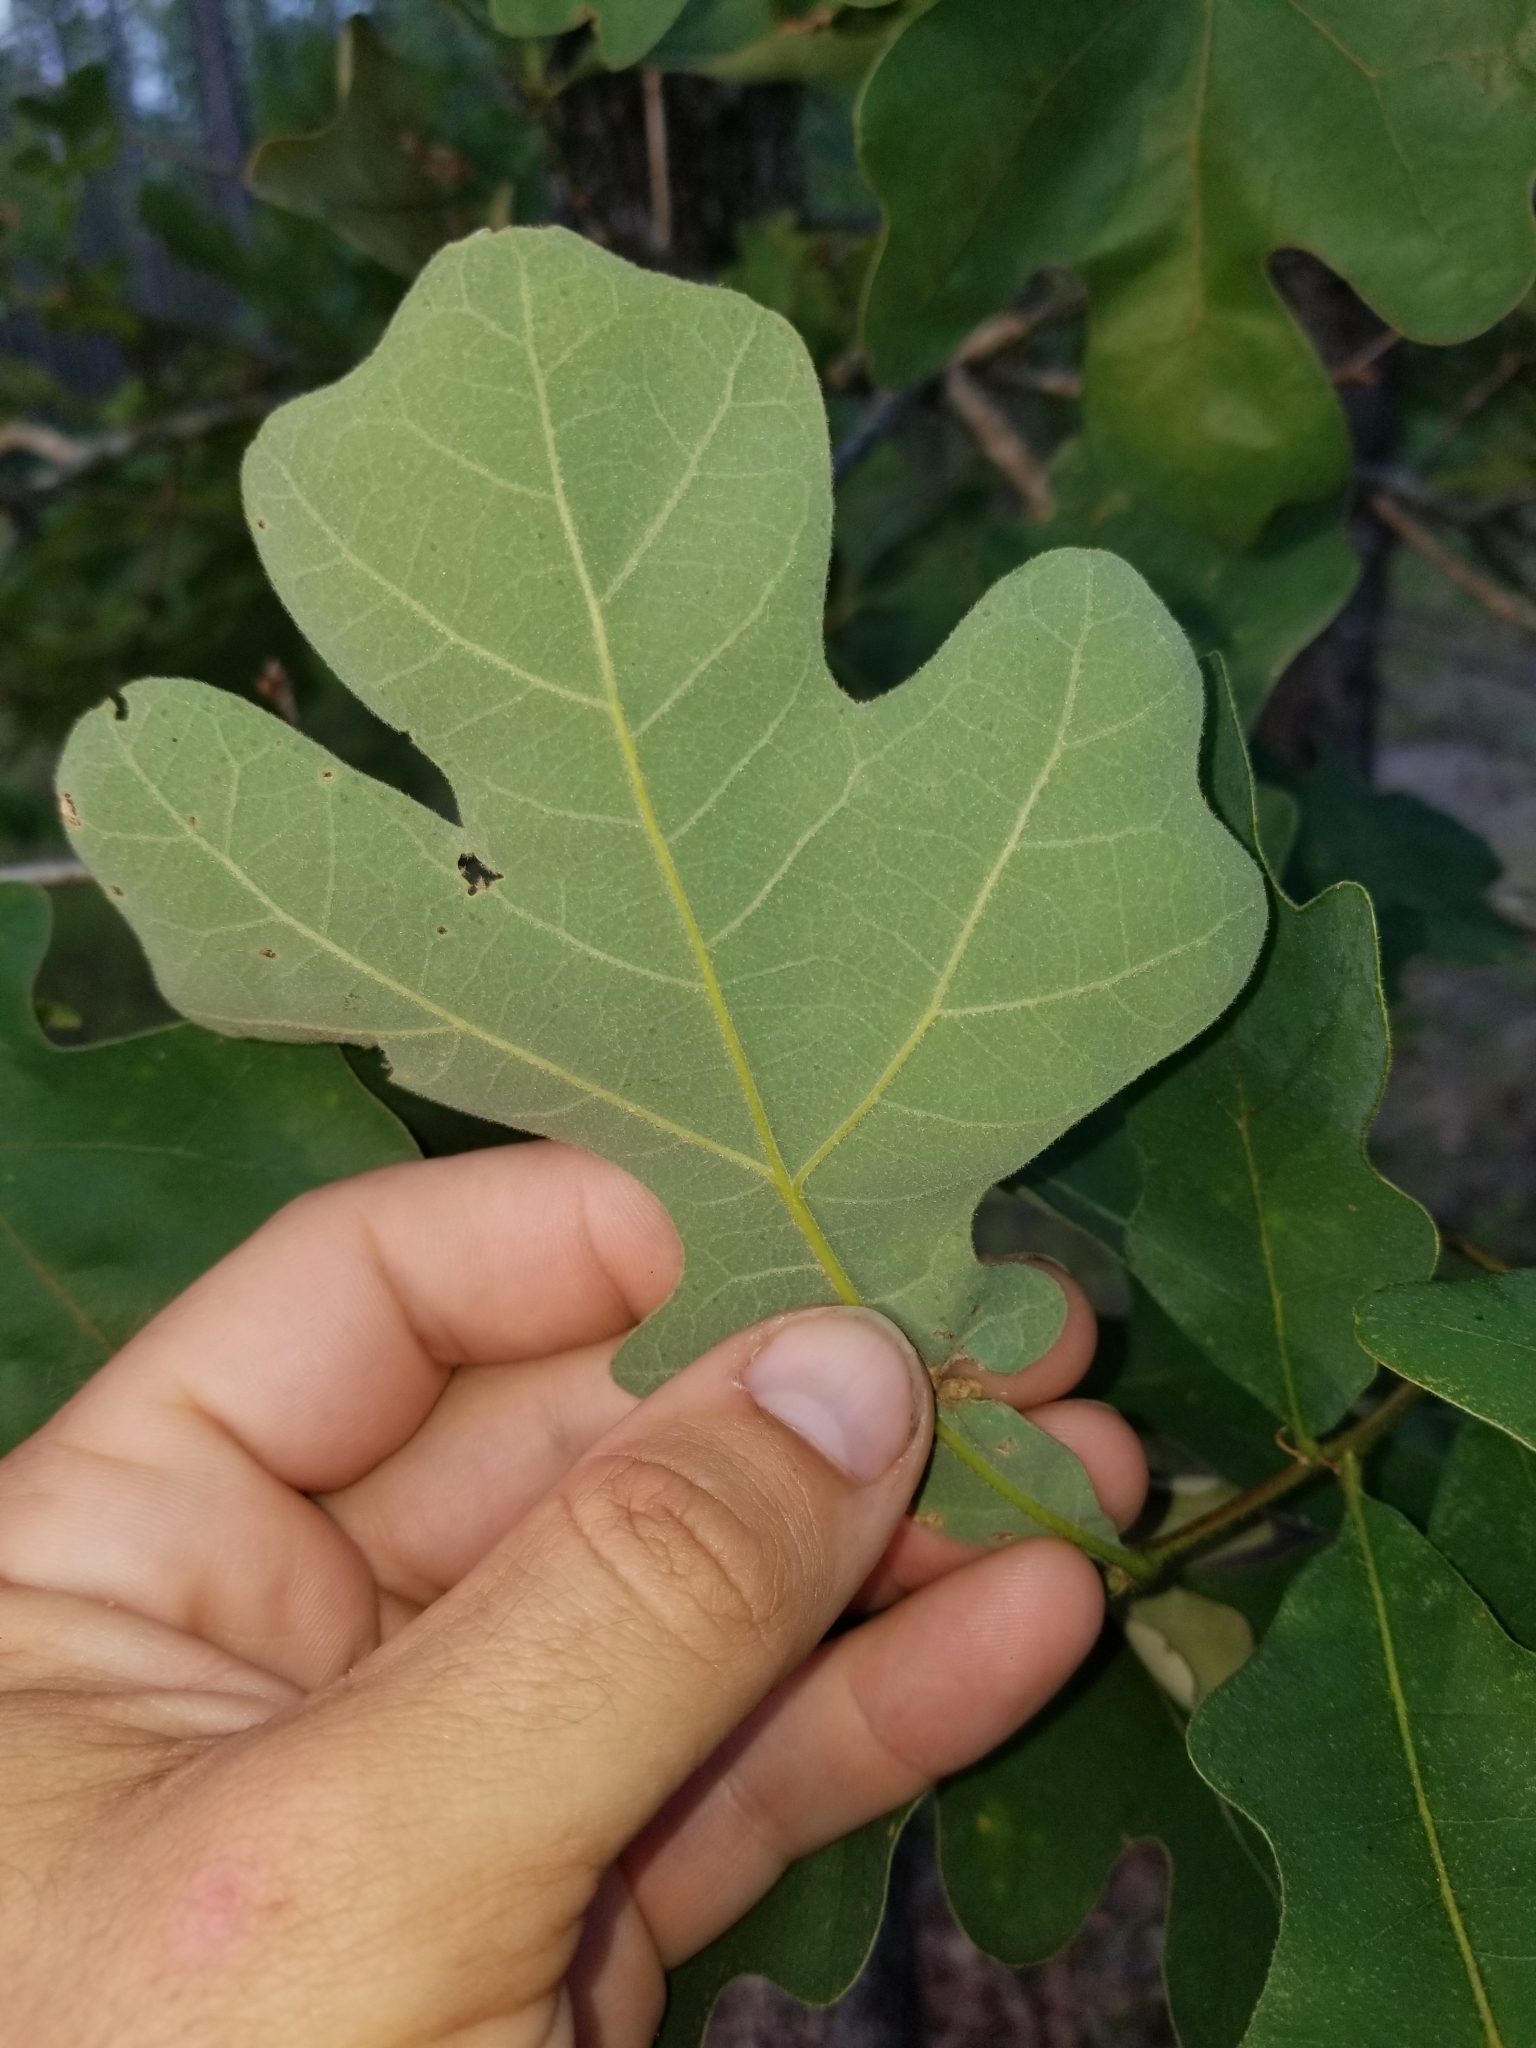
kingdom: Plantae
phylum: Tracheophyta
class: Magnoliopsida
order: Fagales
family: Fagaceae
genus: Quercus
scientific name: Quercus margaretiae
